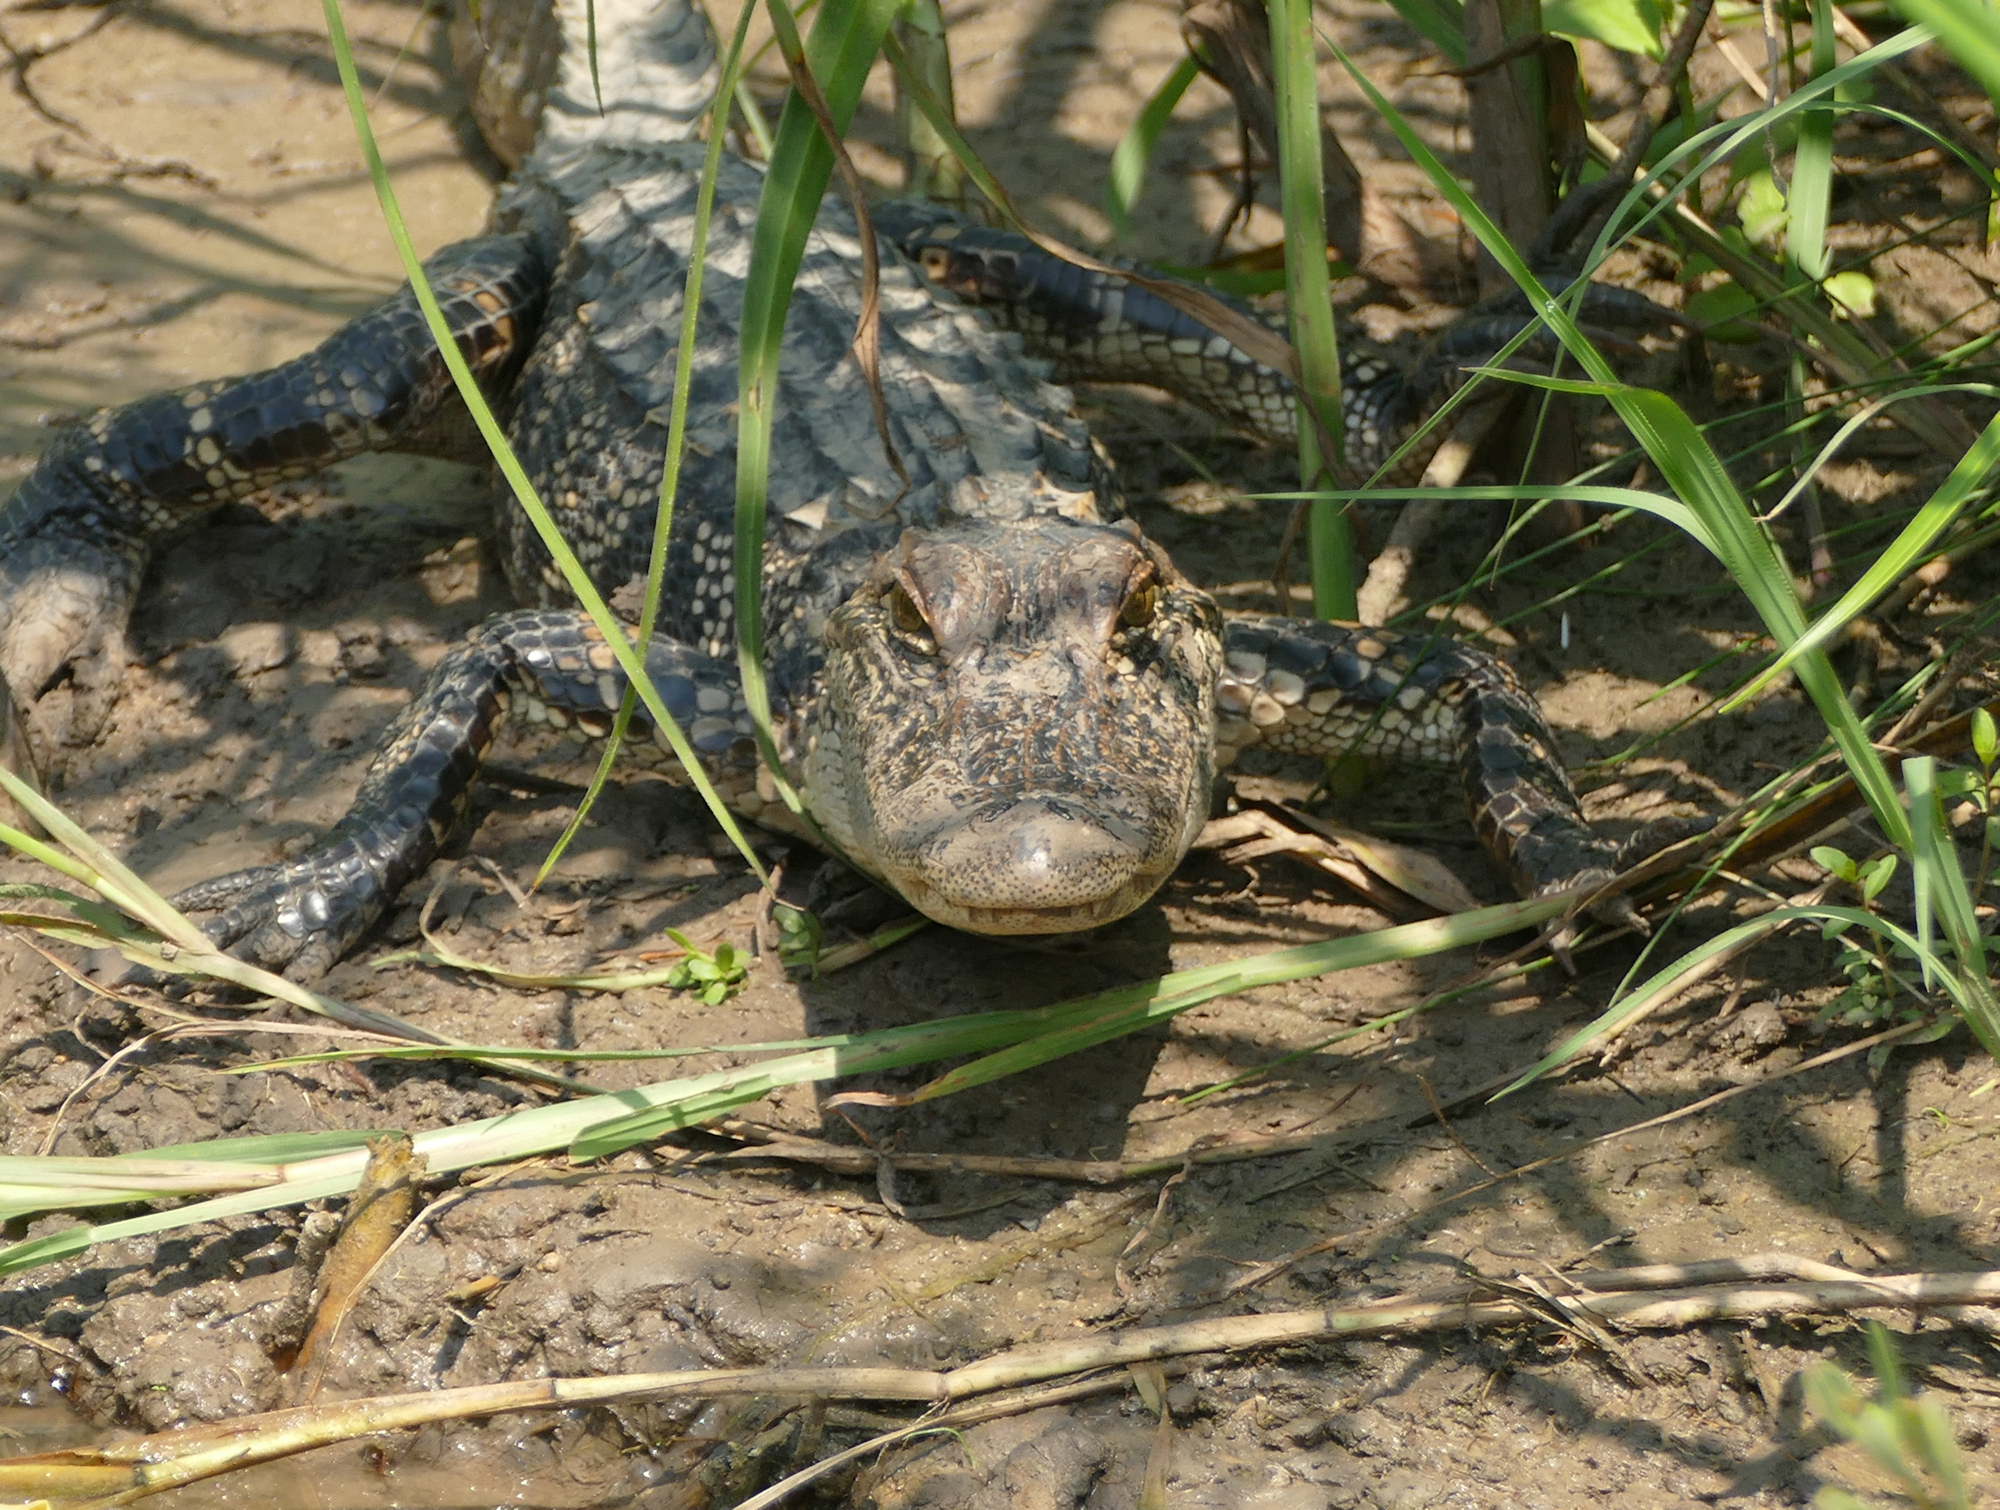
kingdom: Animalia
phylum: Chordata
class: Crocodylia
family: Alligatoridae
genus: Alligator
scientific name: Alligator mississippiensis
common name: American alligator
